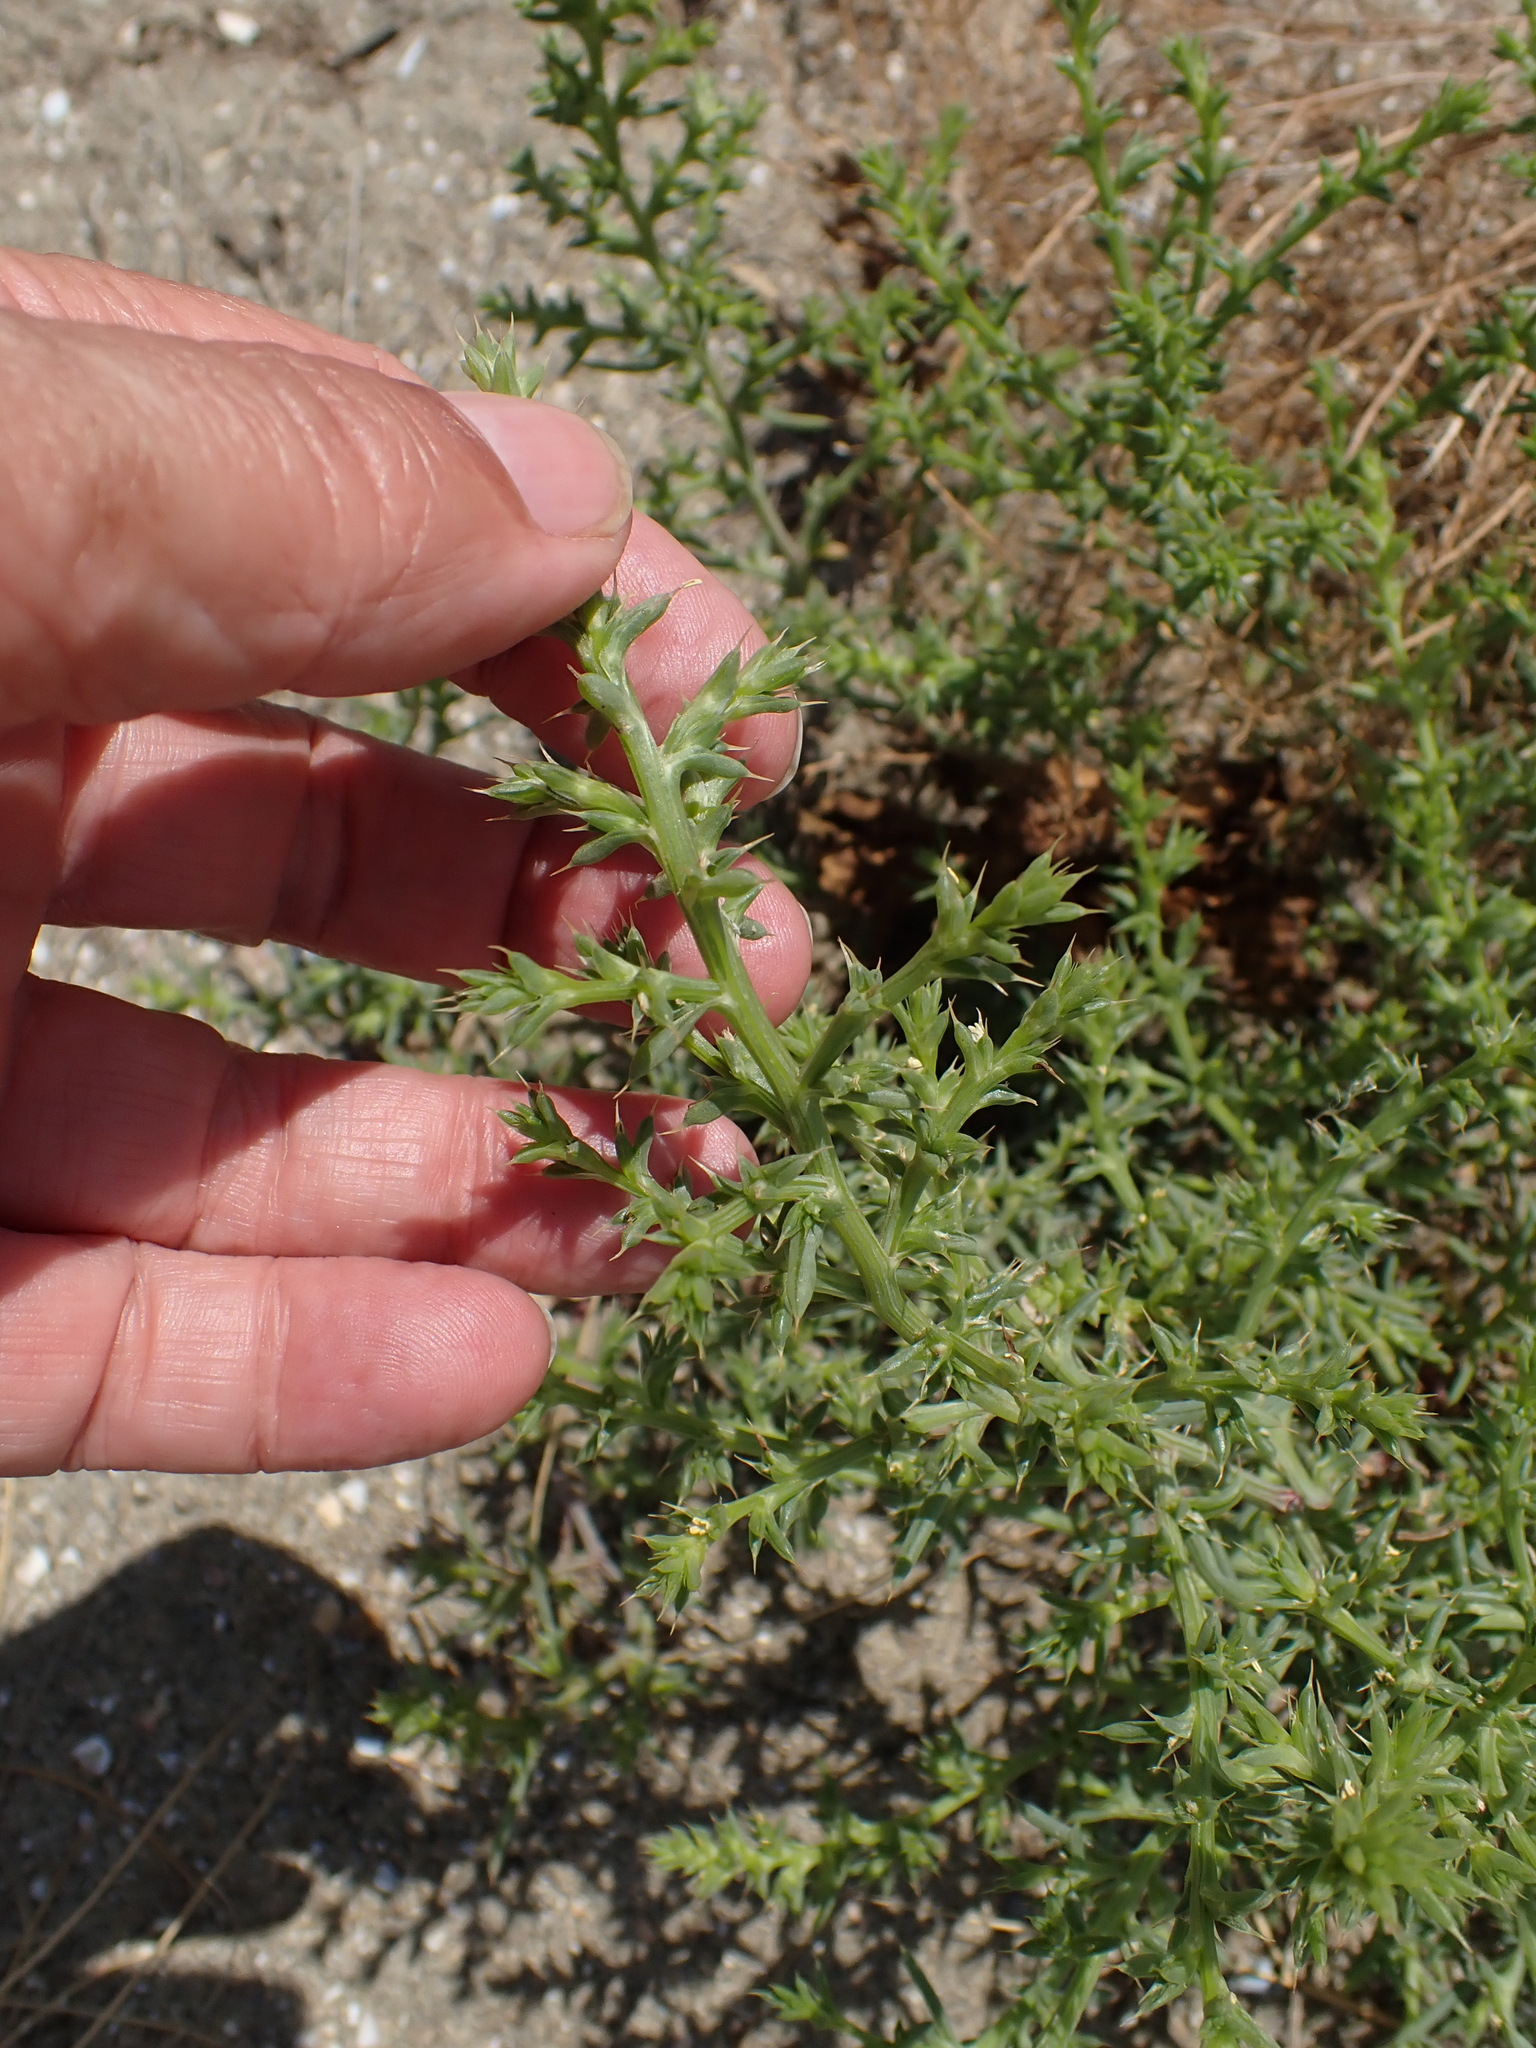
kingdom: Plantae
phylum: Tracheophyta
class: Magnoliopsida
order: Caryophyllales
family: Amaranthaceae
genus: Salsola
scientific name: Salsola kali
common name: Saltwort
